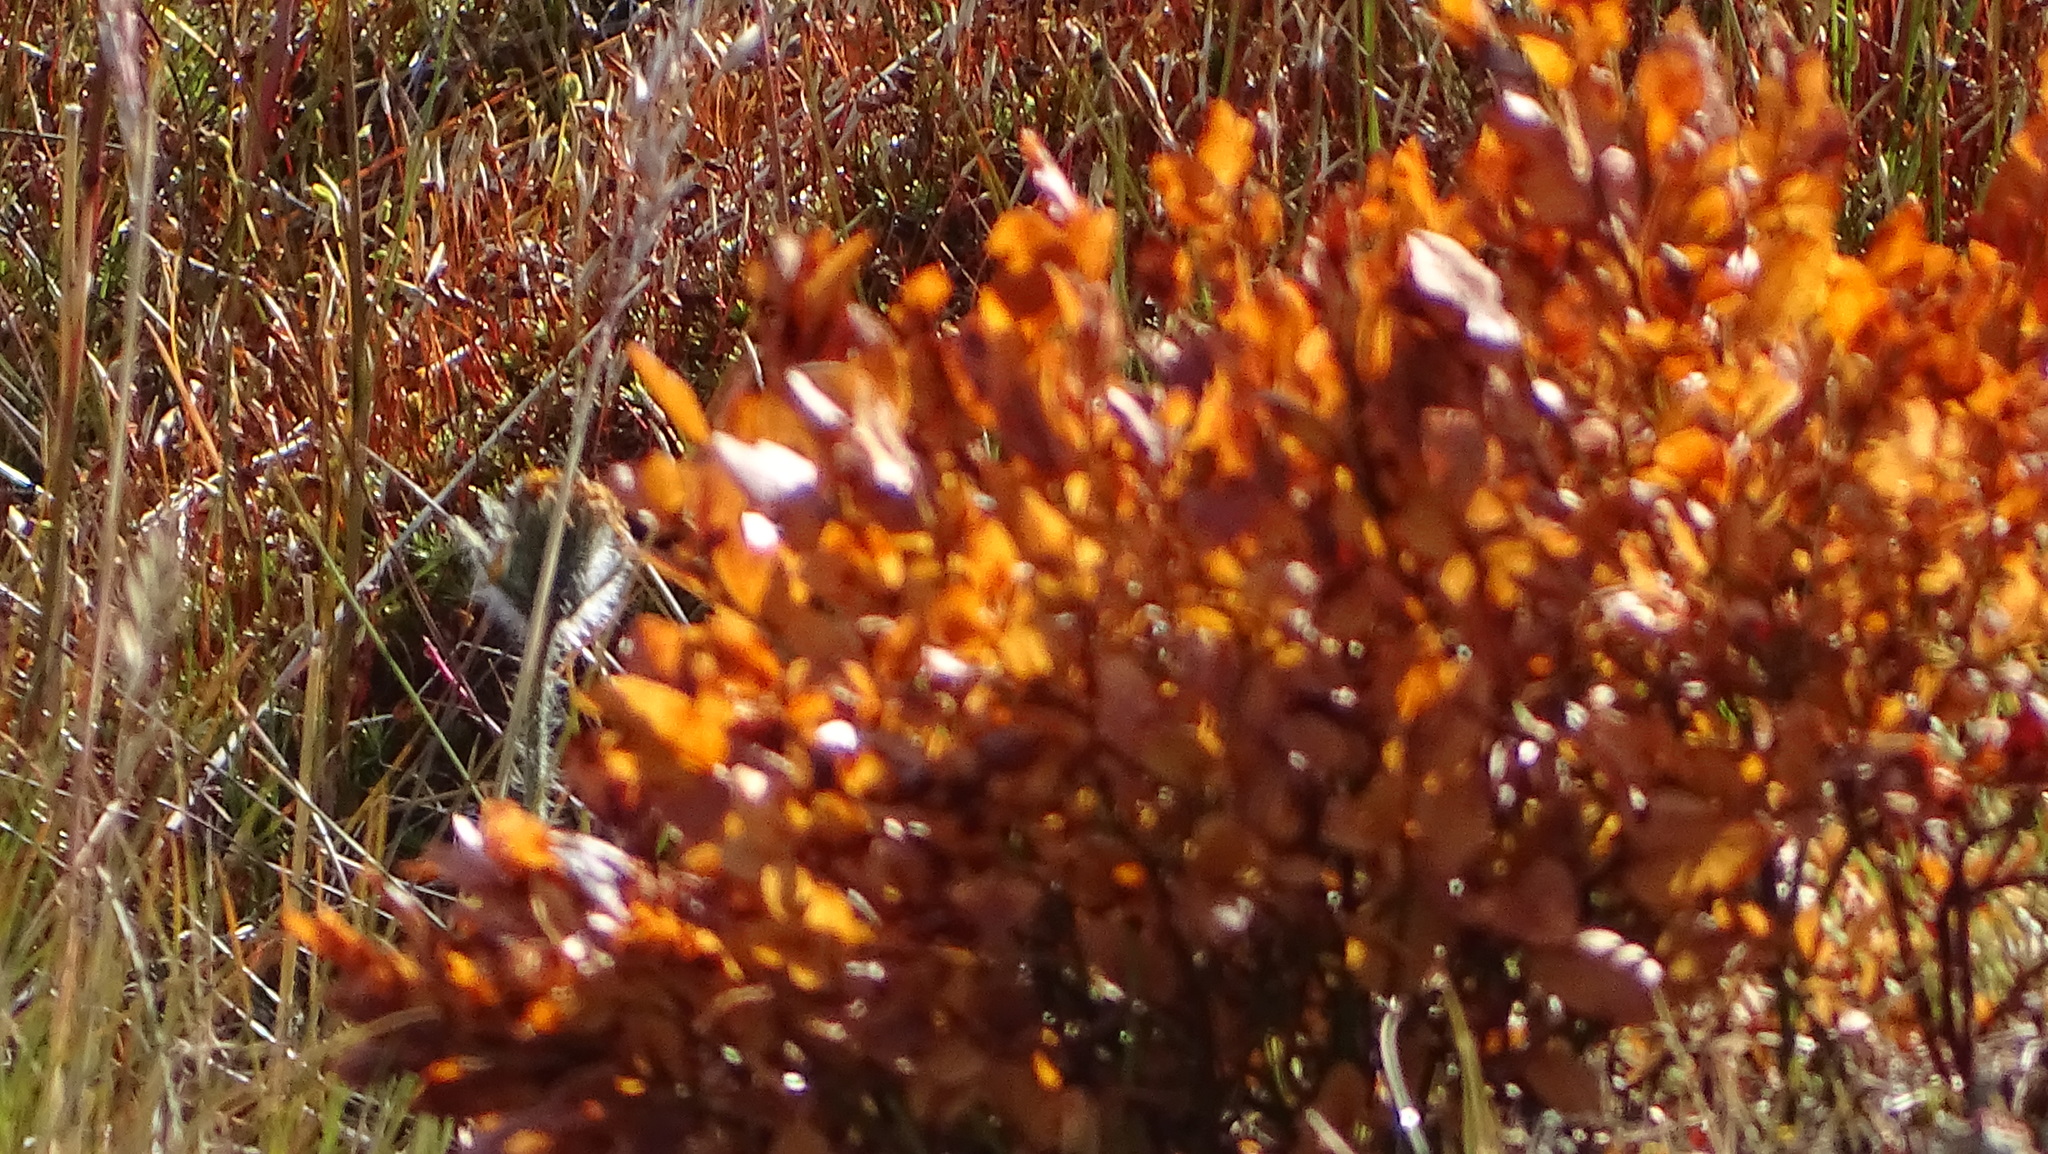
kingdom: Plantae
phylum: Tracheophyta
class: Magnoliopsida
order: Ericales
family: Ericaceae
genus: Vaccinium
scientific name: Vaccinium myrtillus
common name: Bilberry
